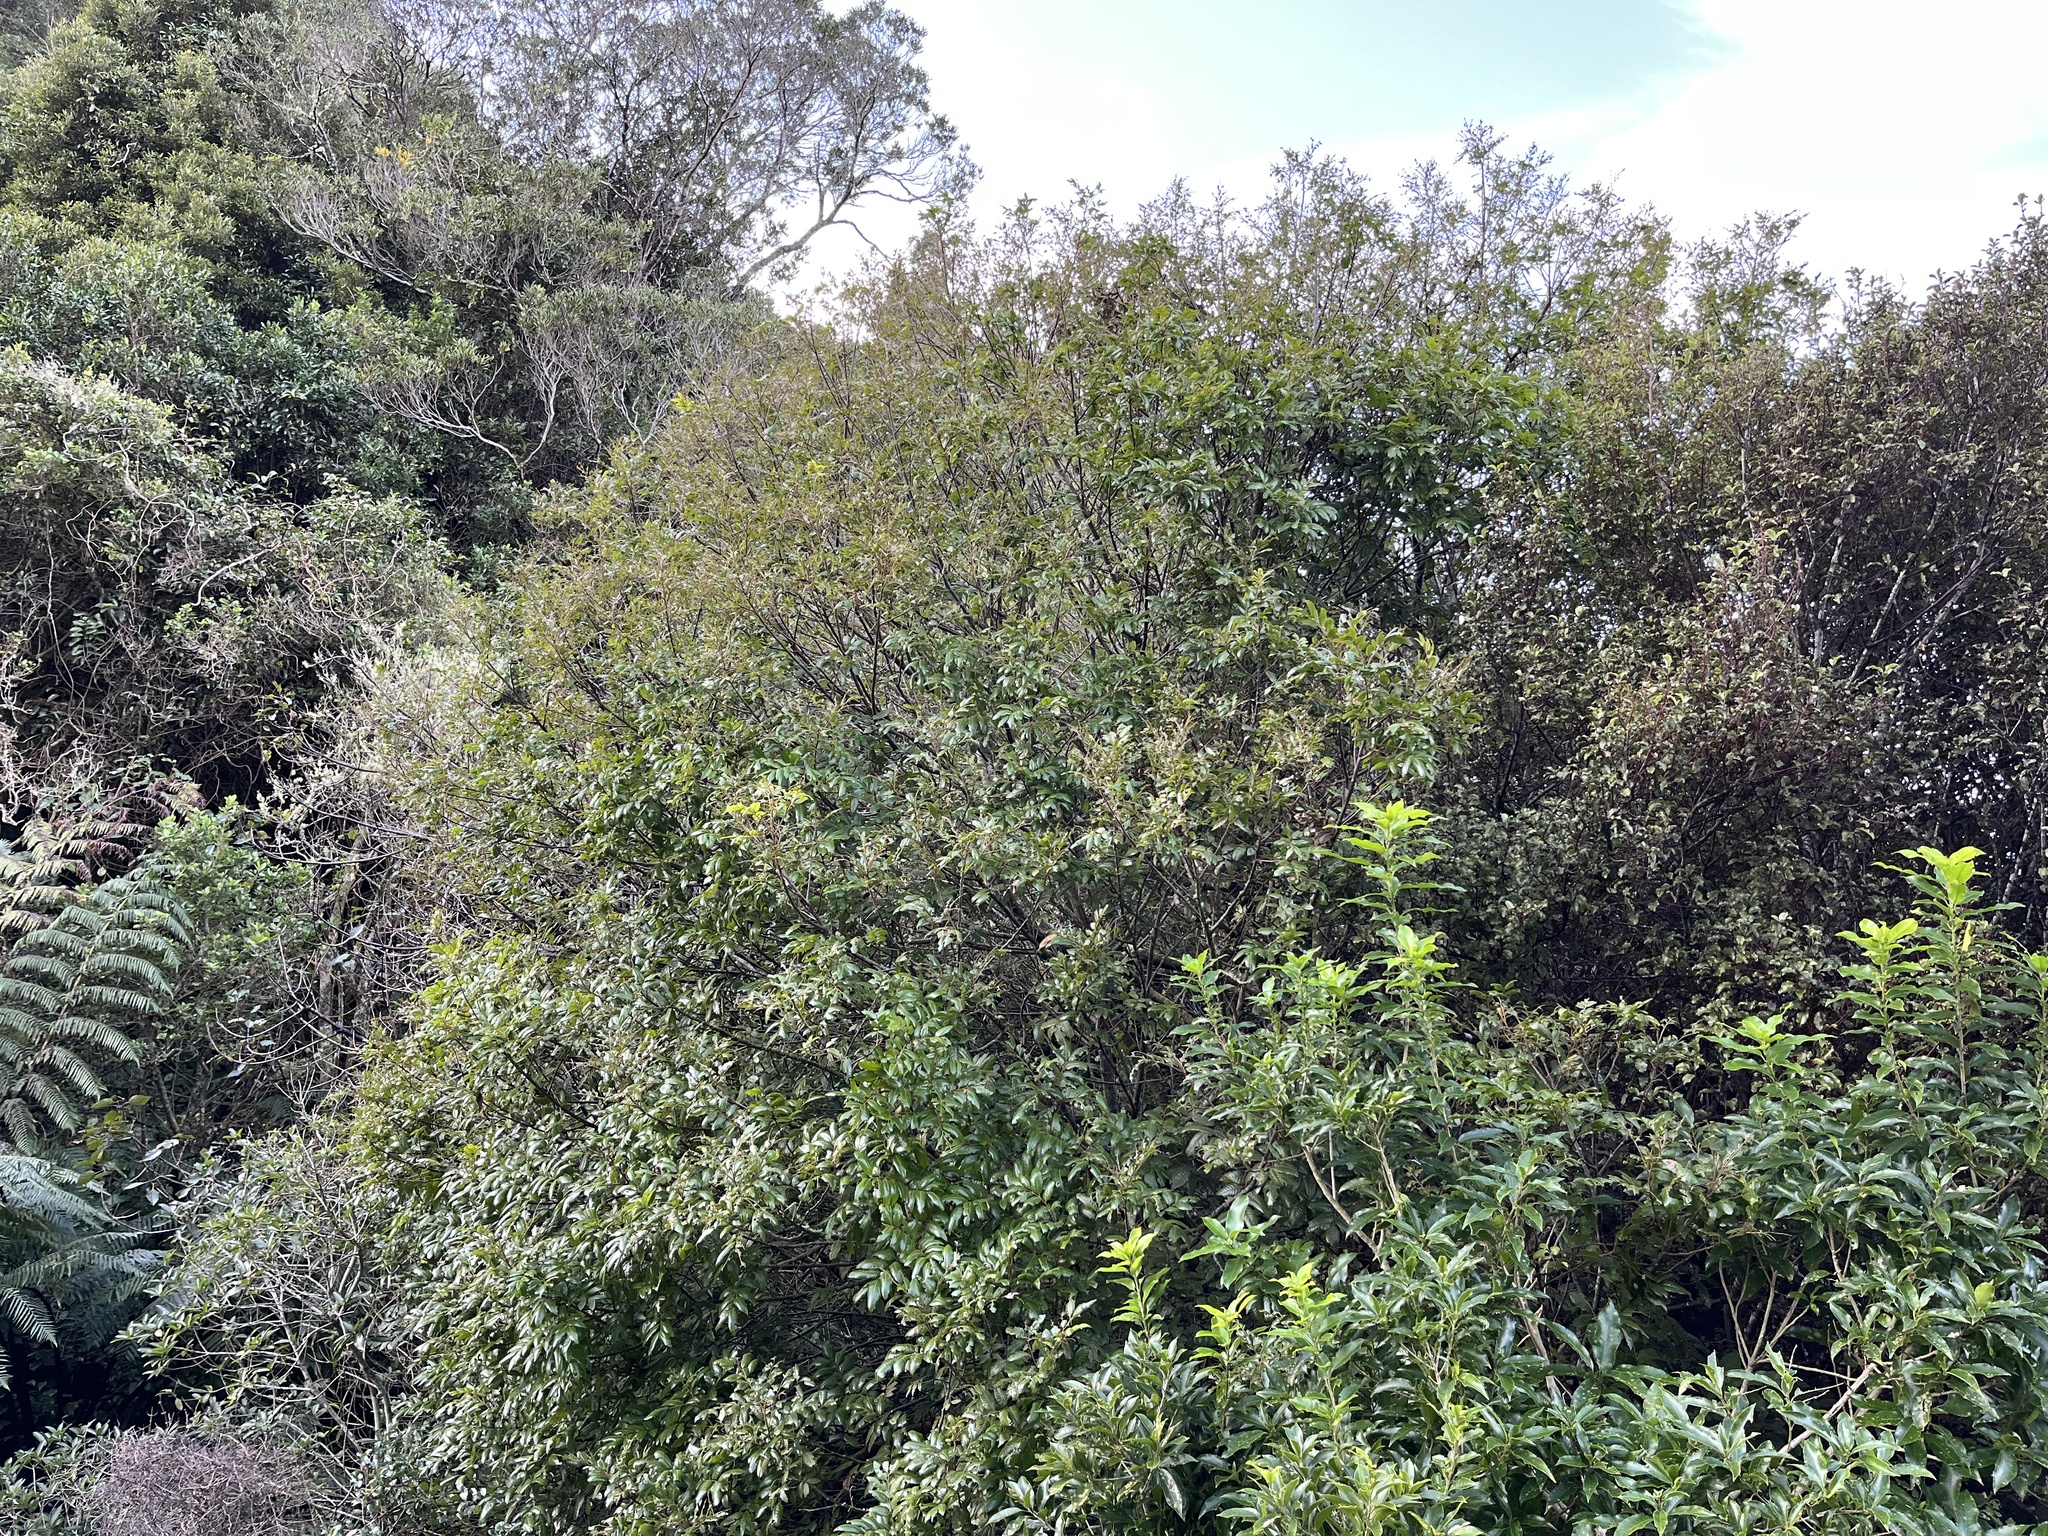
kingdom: Plantae
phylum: Tracheophyta
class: Magnoliopsida
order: Sapindales
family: Sapindaceae
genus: Alectryon
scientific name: Alectryon excelsus
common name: Three kings titoki
